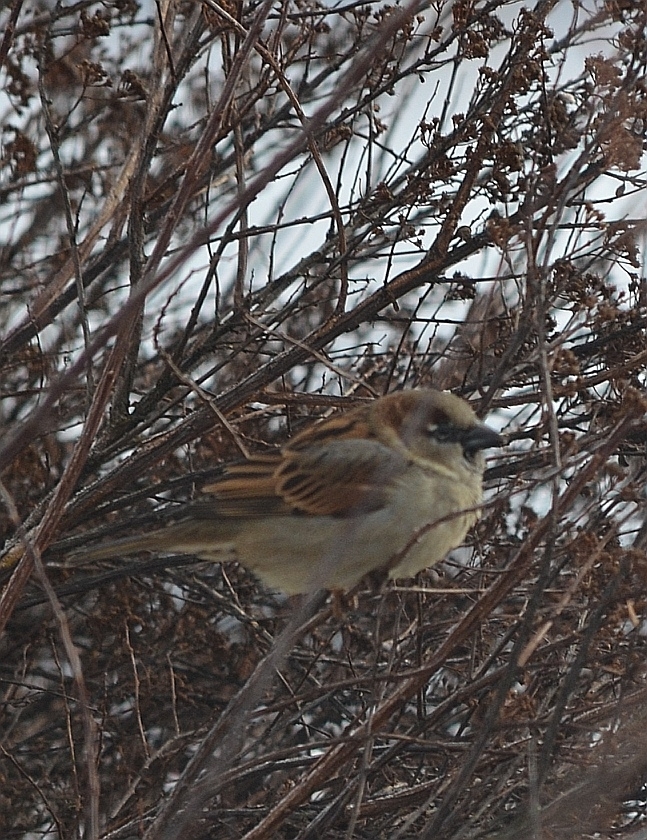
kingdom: Animalia
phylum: Chordata
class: Aves
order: Passeriformes
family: Passeridae
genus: Passer
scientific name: Passer domesticus
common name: House sparrow
